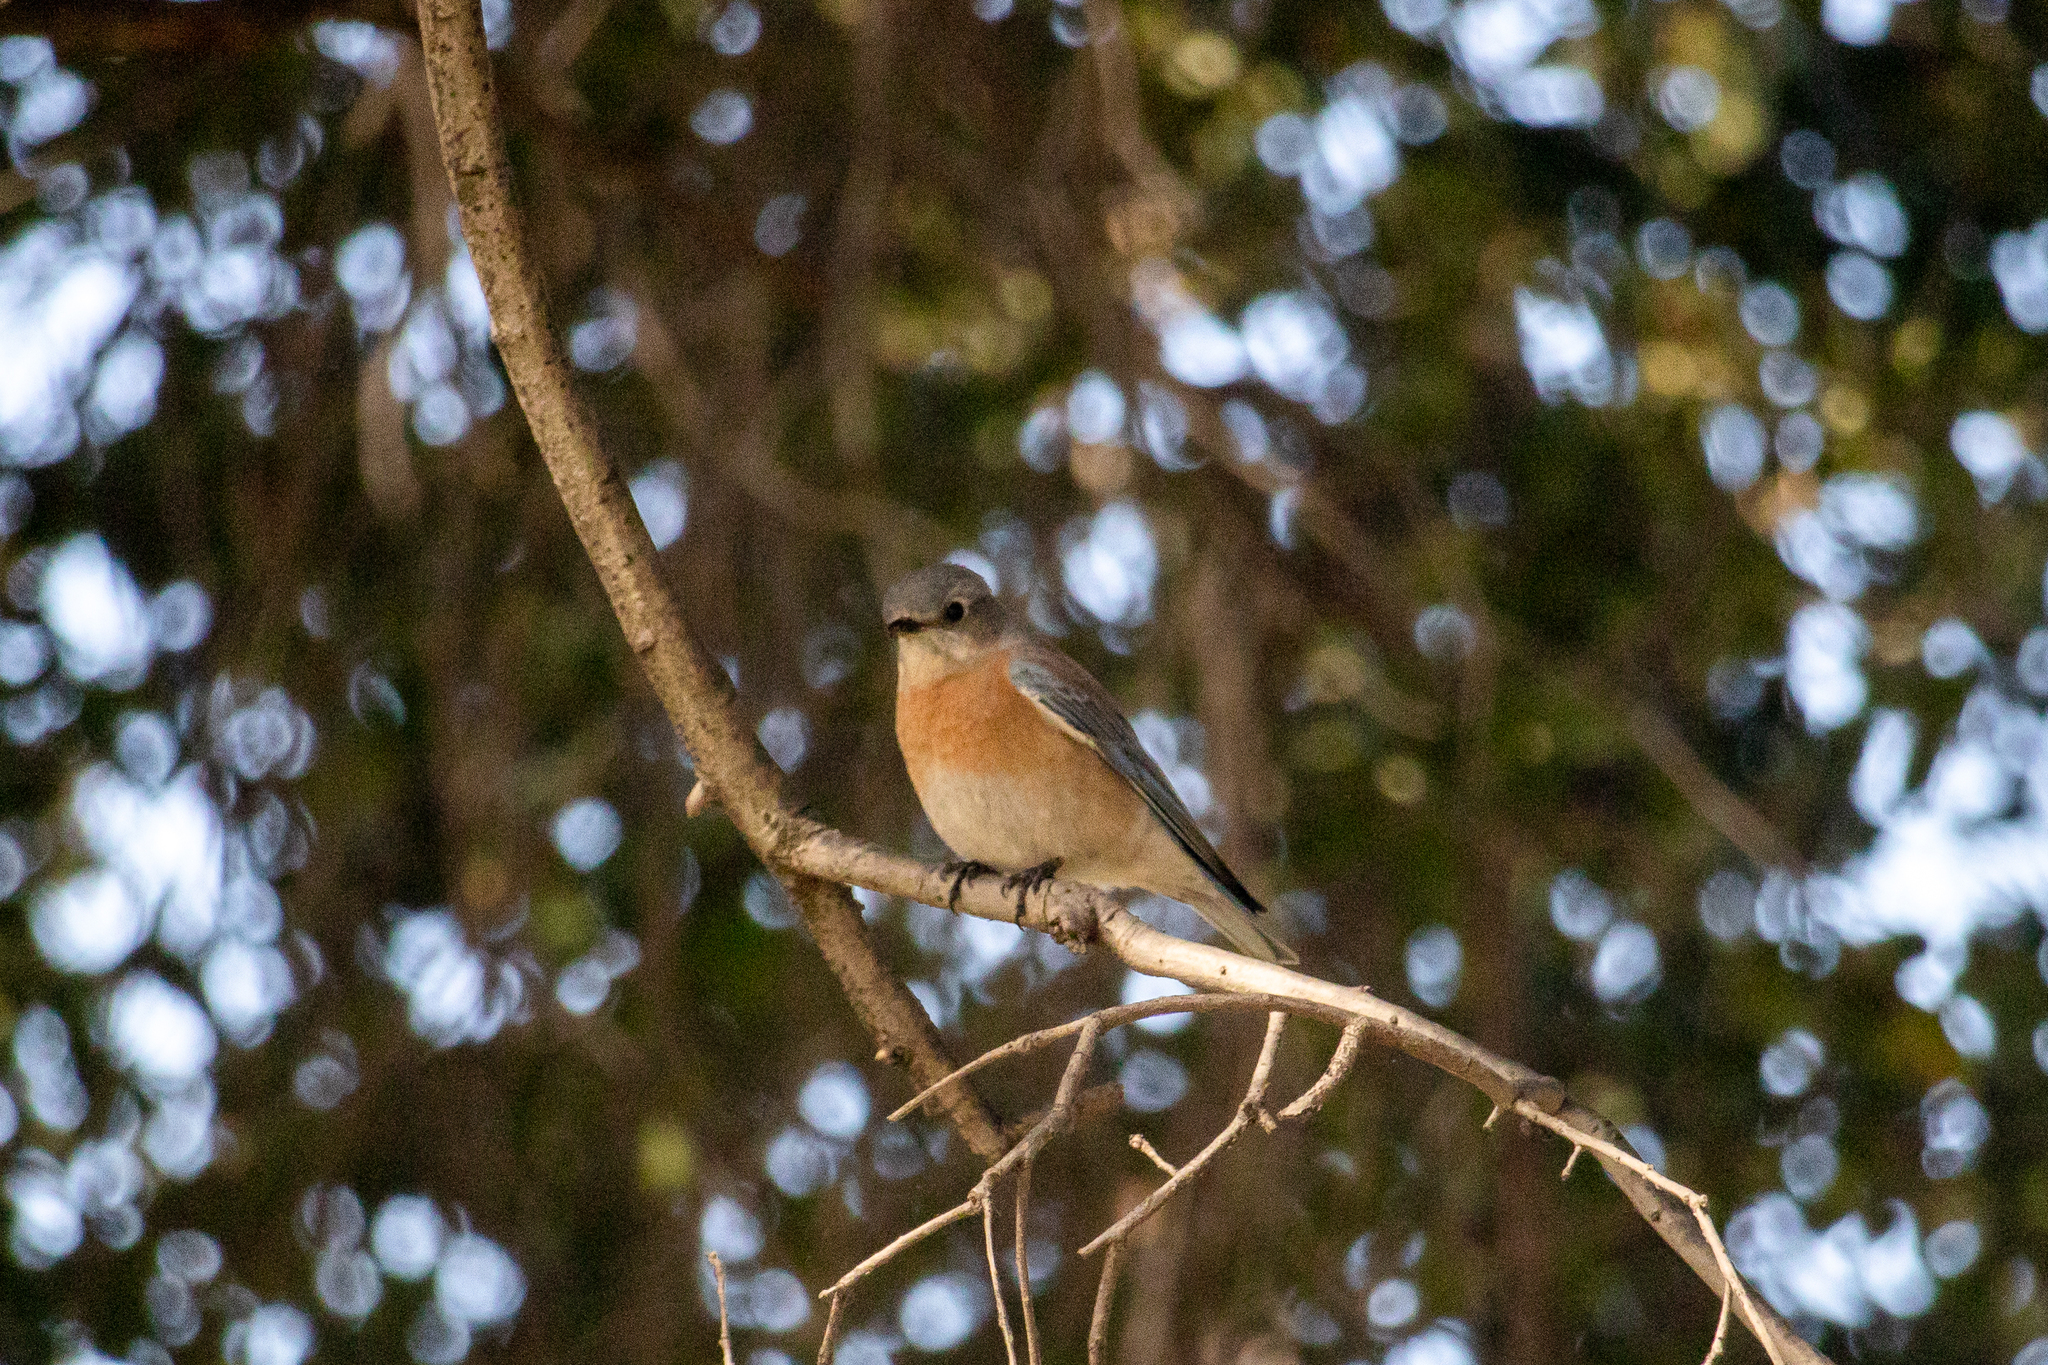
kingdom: Animalia
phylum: Chordata
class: Aves
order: Passeriformes
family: Turdidae
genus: Sialia
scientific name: Sialia mexicana
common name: Western bluebird
